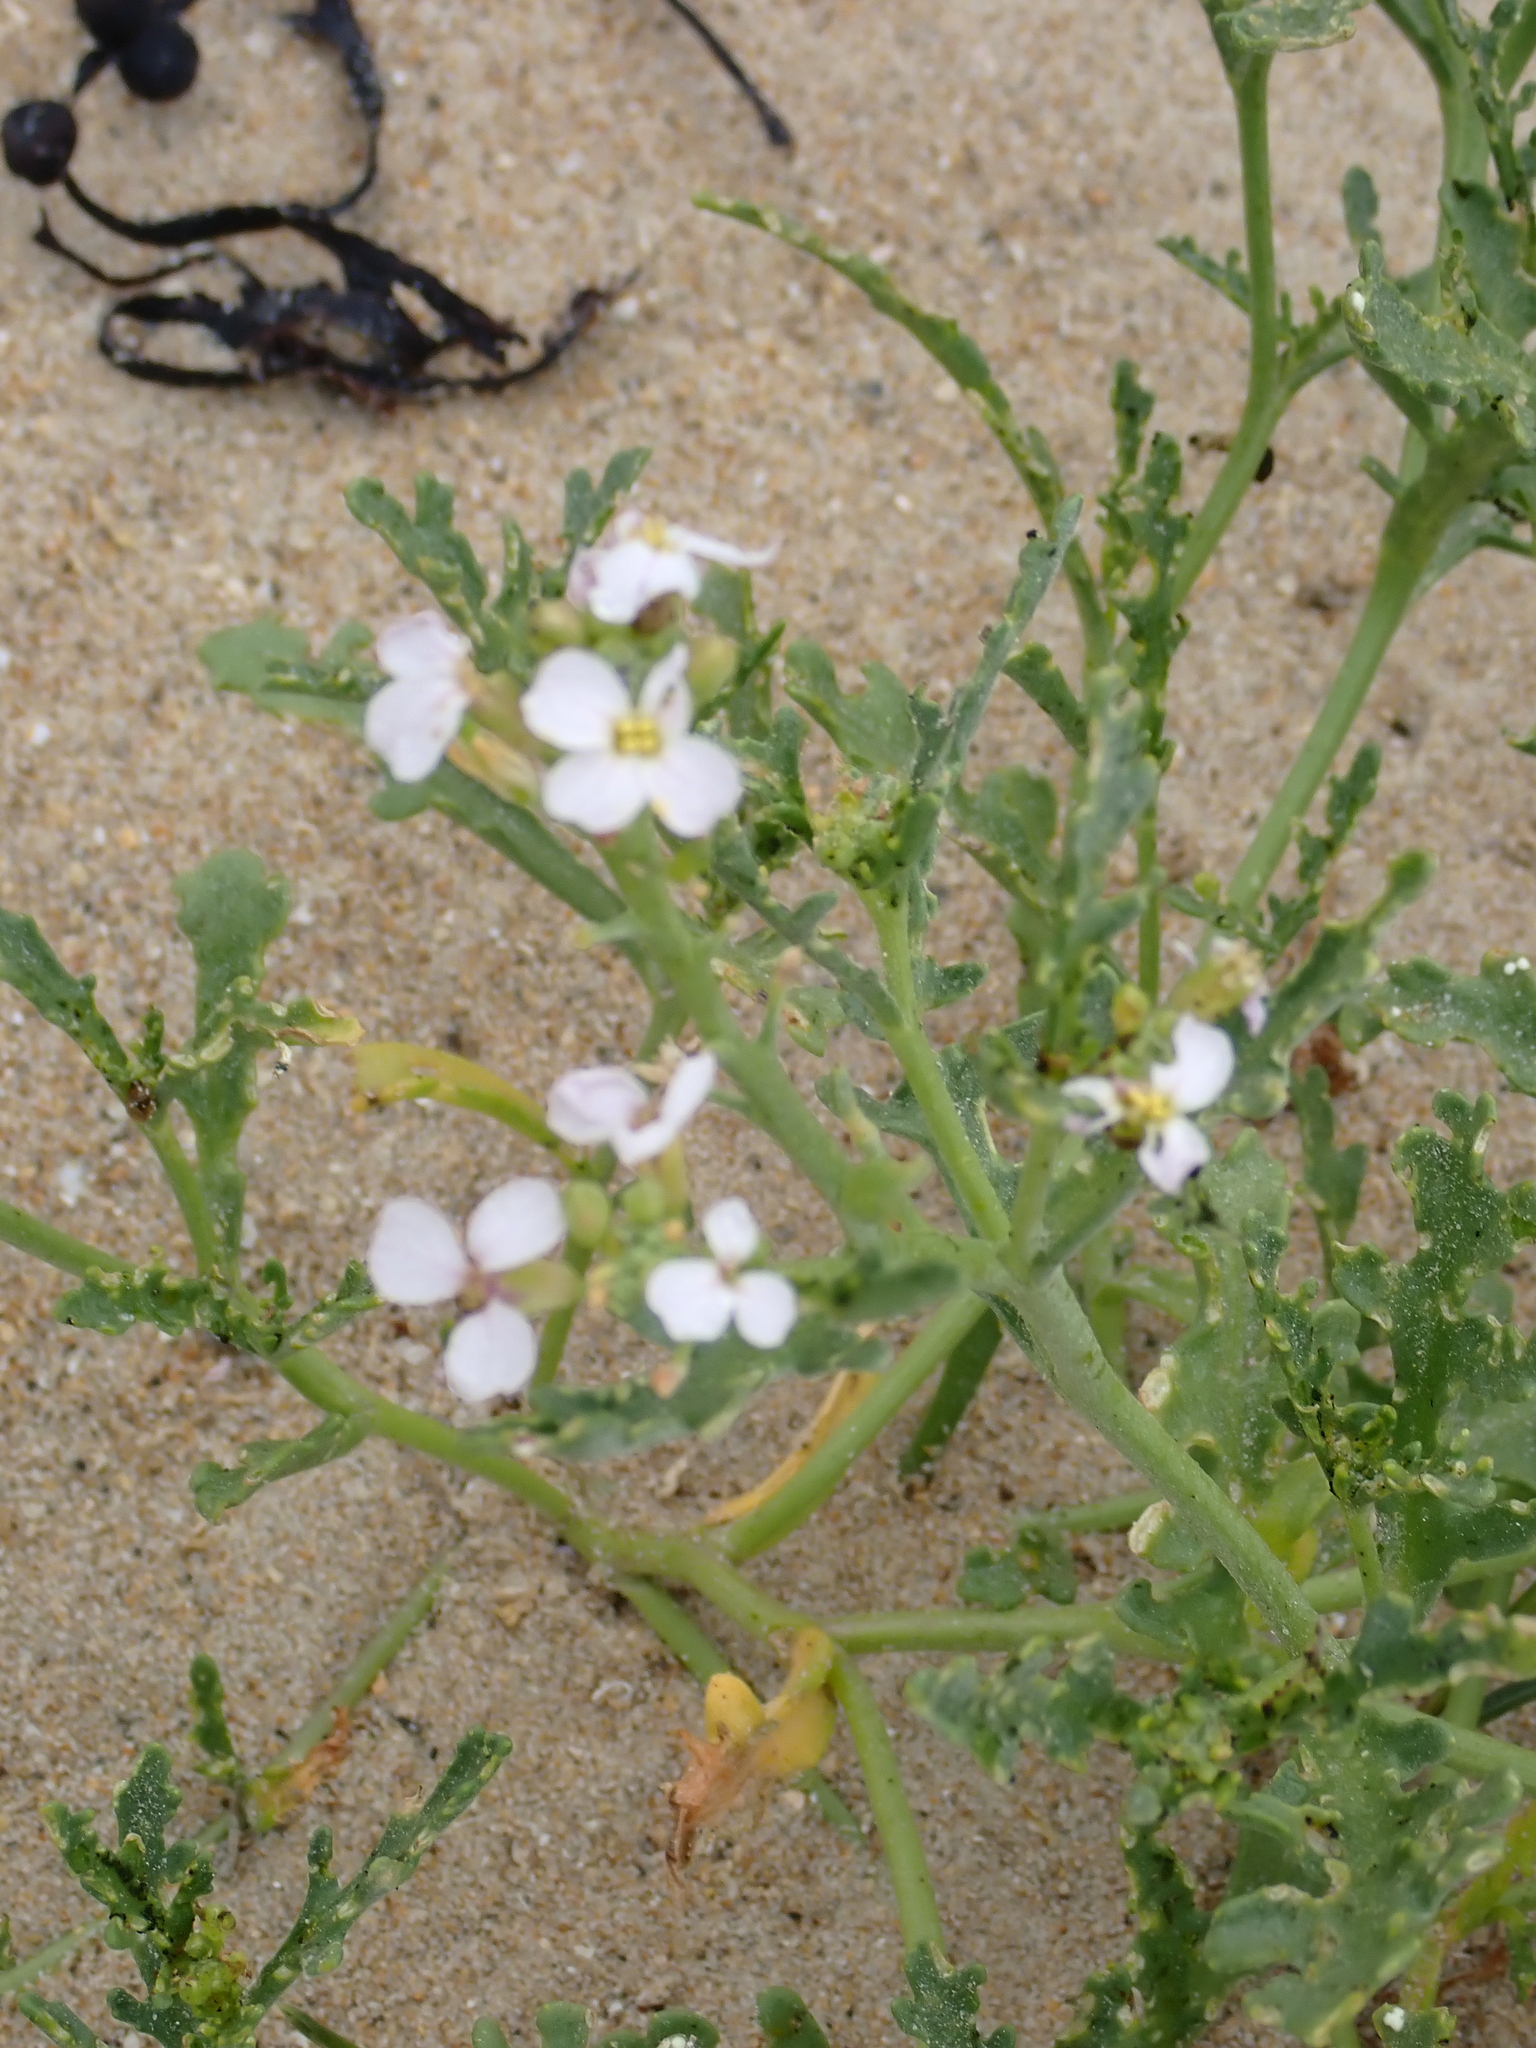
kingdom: Plantae
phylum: Tracheophyta
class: Magnoliopsida
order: Brassicales
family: Brassicaceae
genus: Cakile
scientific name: Cakile maritima
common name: Sea rocket
